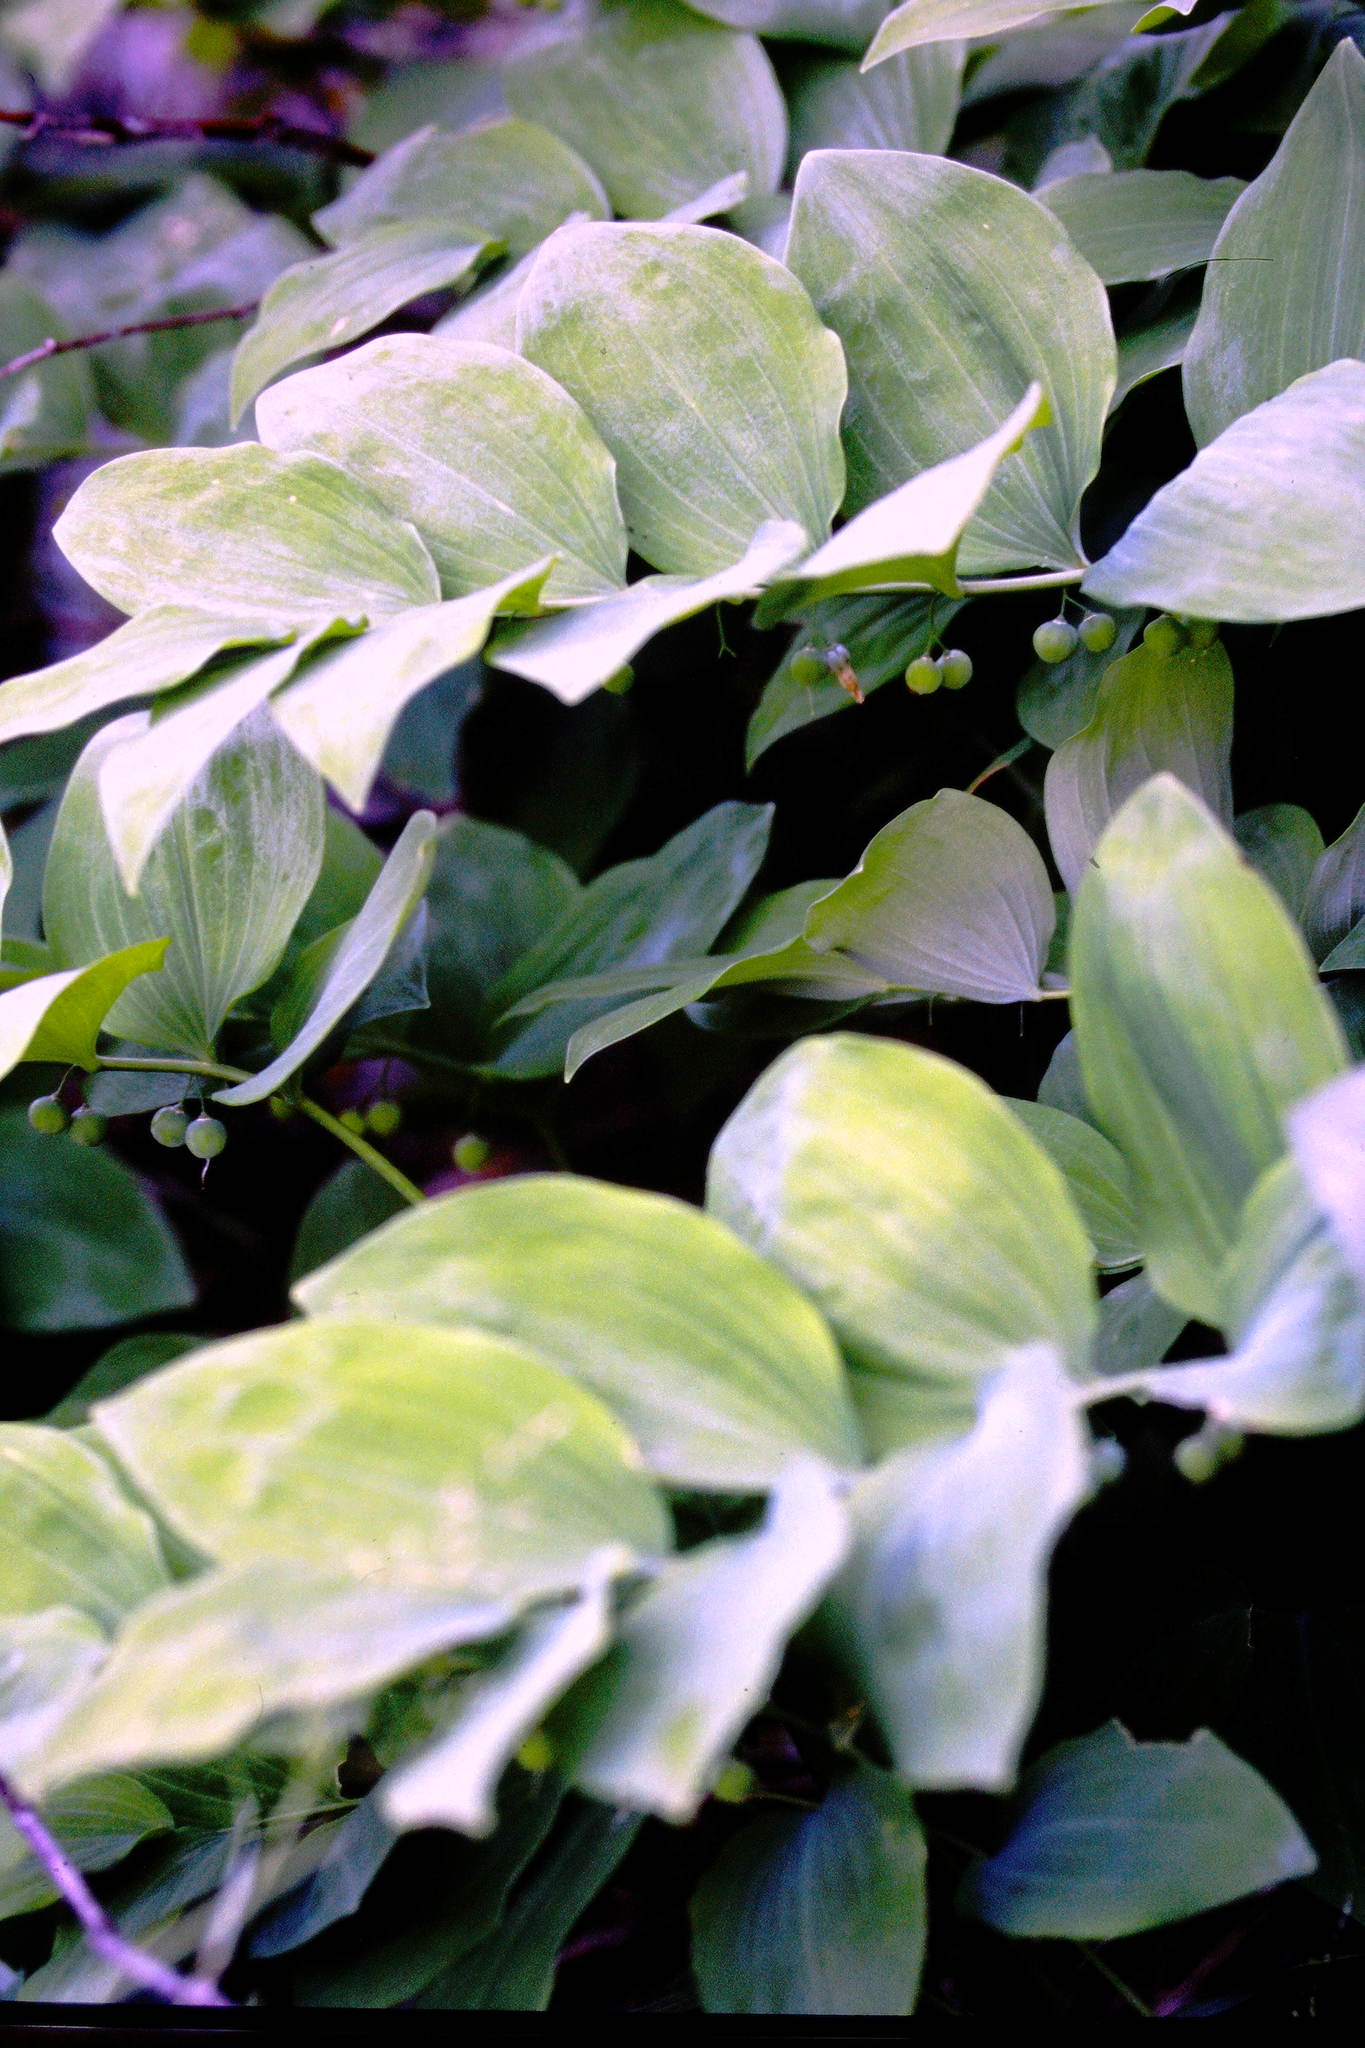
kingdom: Plantae
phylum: Tracheophyta
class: Liliopsida
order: Asparagales
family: Asparagaceae
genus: Polygonatum
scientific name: Polygonatum pubescens
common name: Downy solomon's seal
